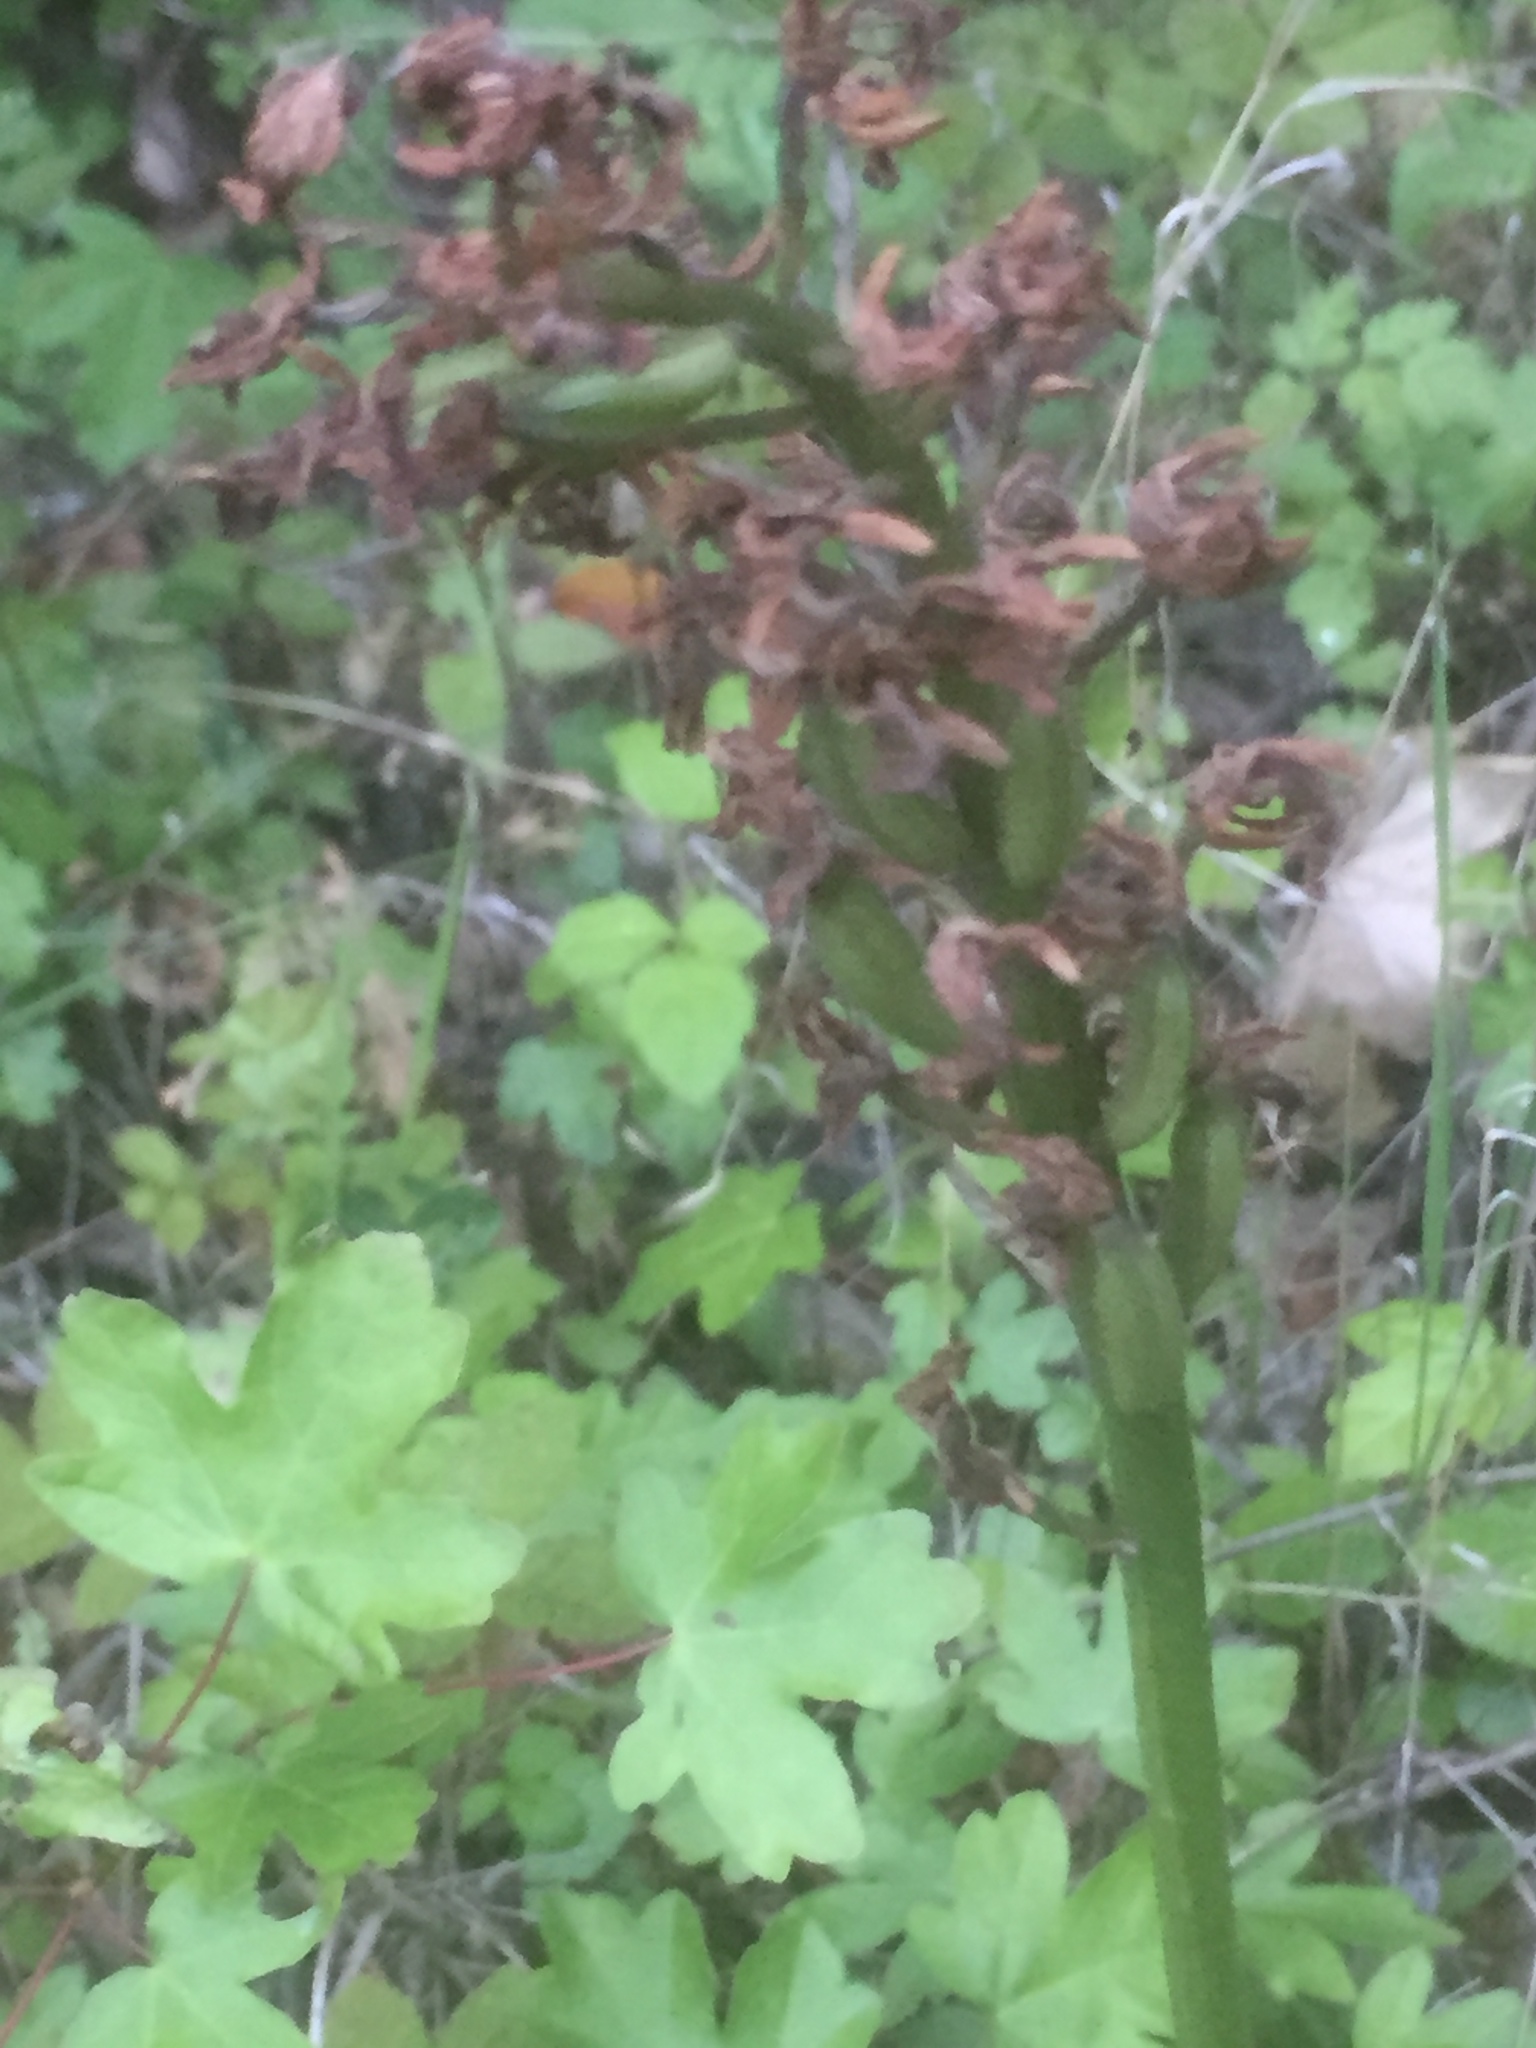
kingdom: Plantae
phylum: Tracheophyta
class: Liliopsida
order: Asparagales
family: Orchidaceae
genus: Orchis
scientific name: Orchis militaris
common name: Military orchid
